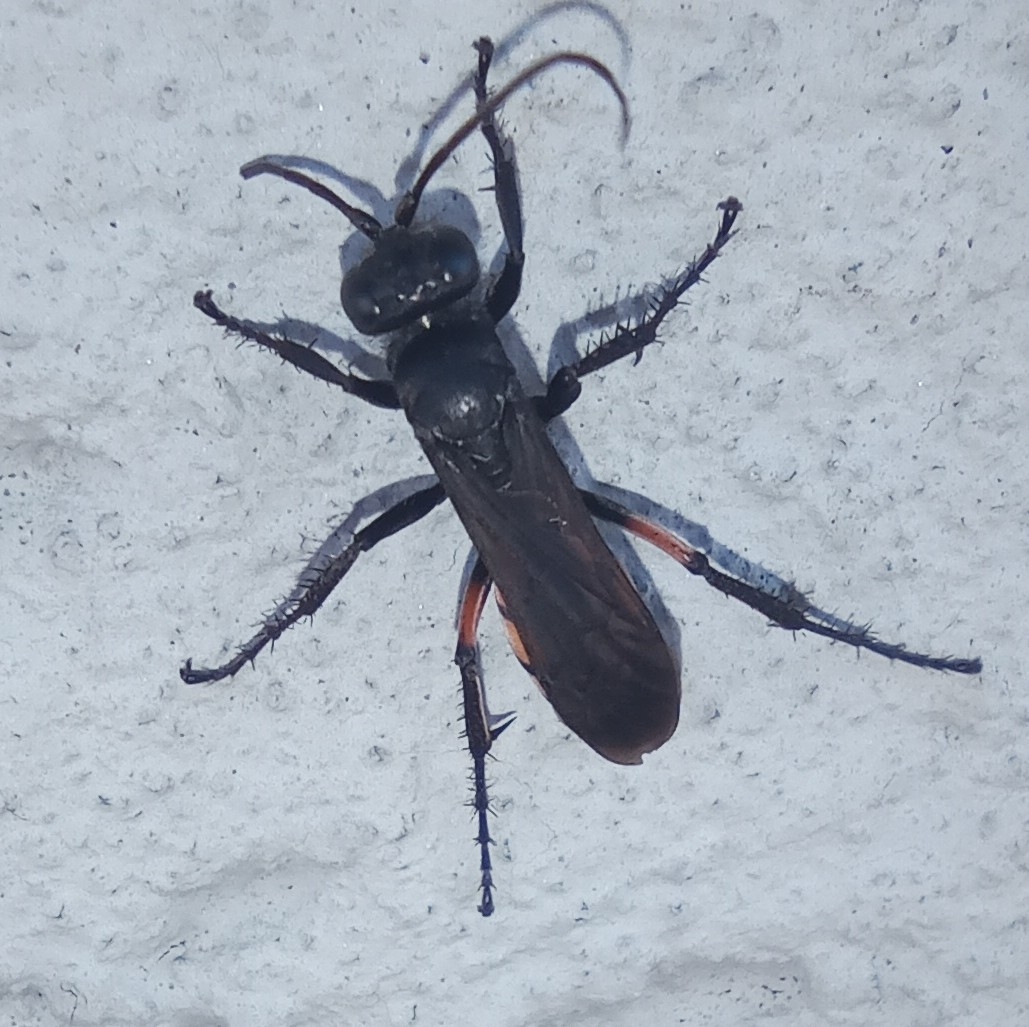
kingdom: Animalia
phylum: Arthropoda
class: Insecta
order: Hymenoptera
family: Pompilidae
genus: Anoplius
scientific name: Anoplius viaticus
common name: Black banded spider wasp
